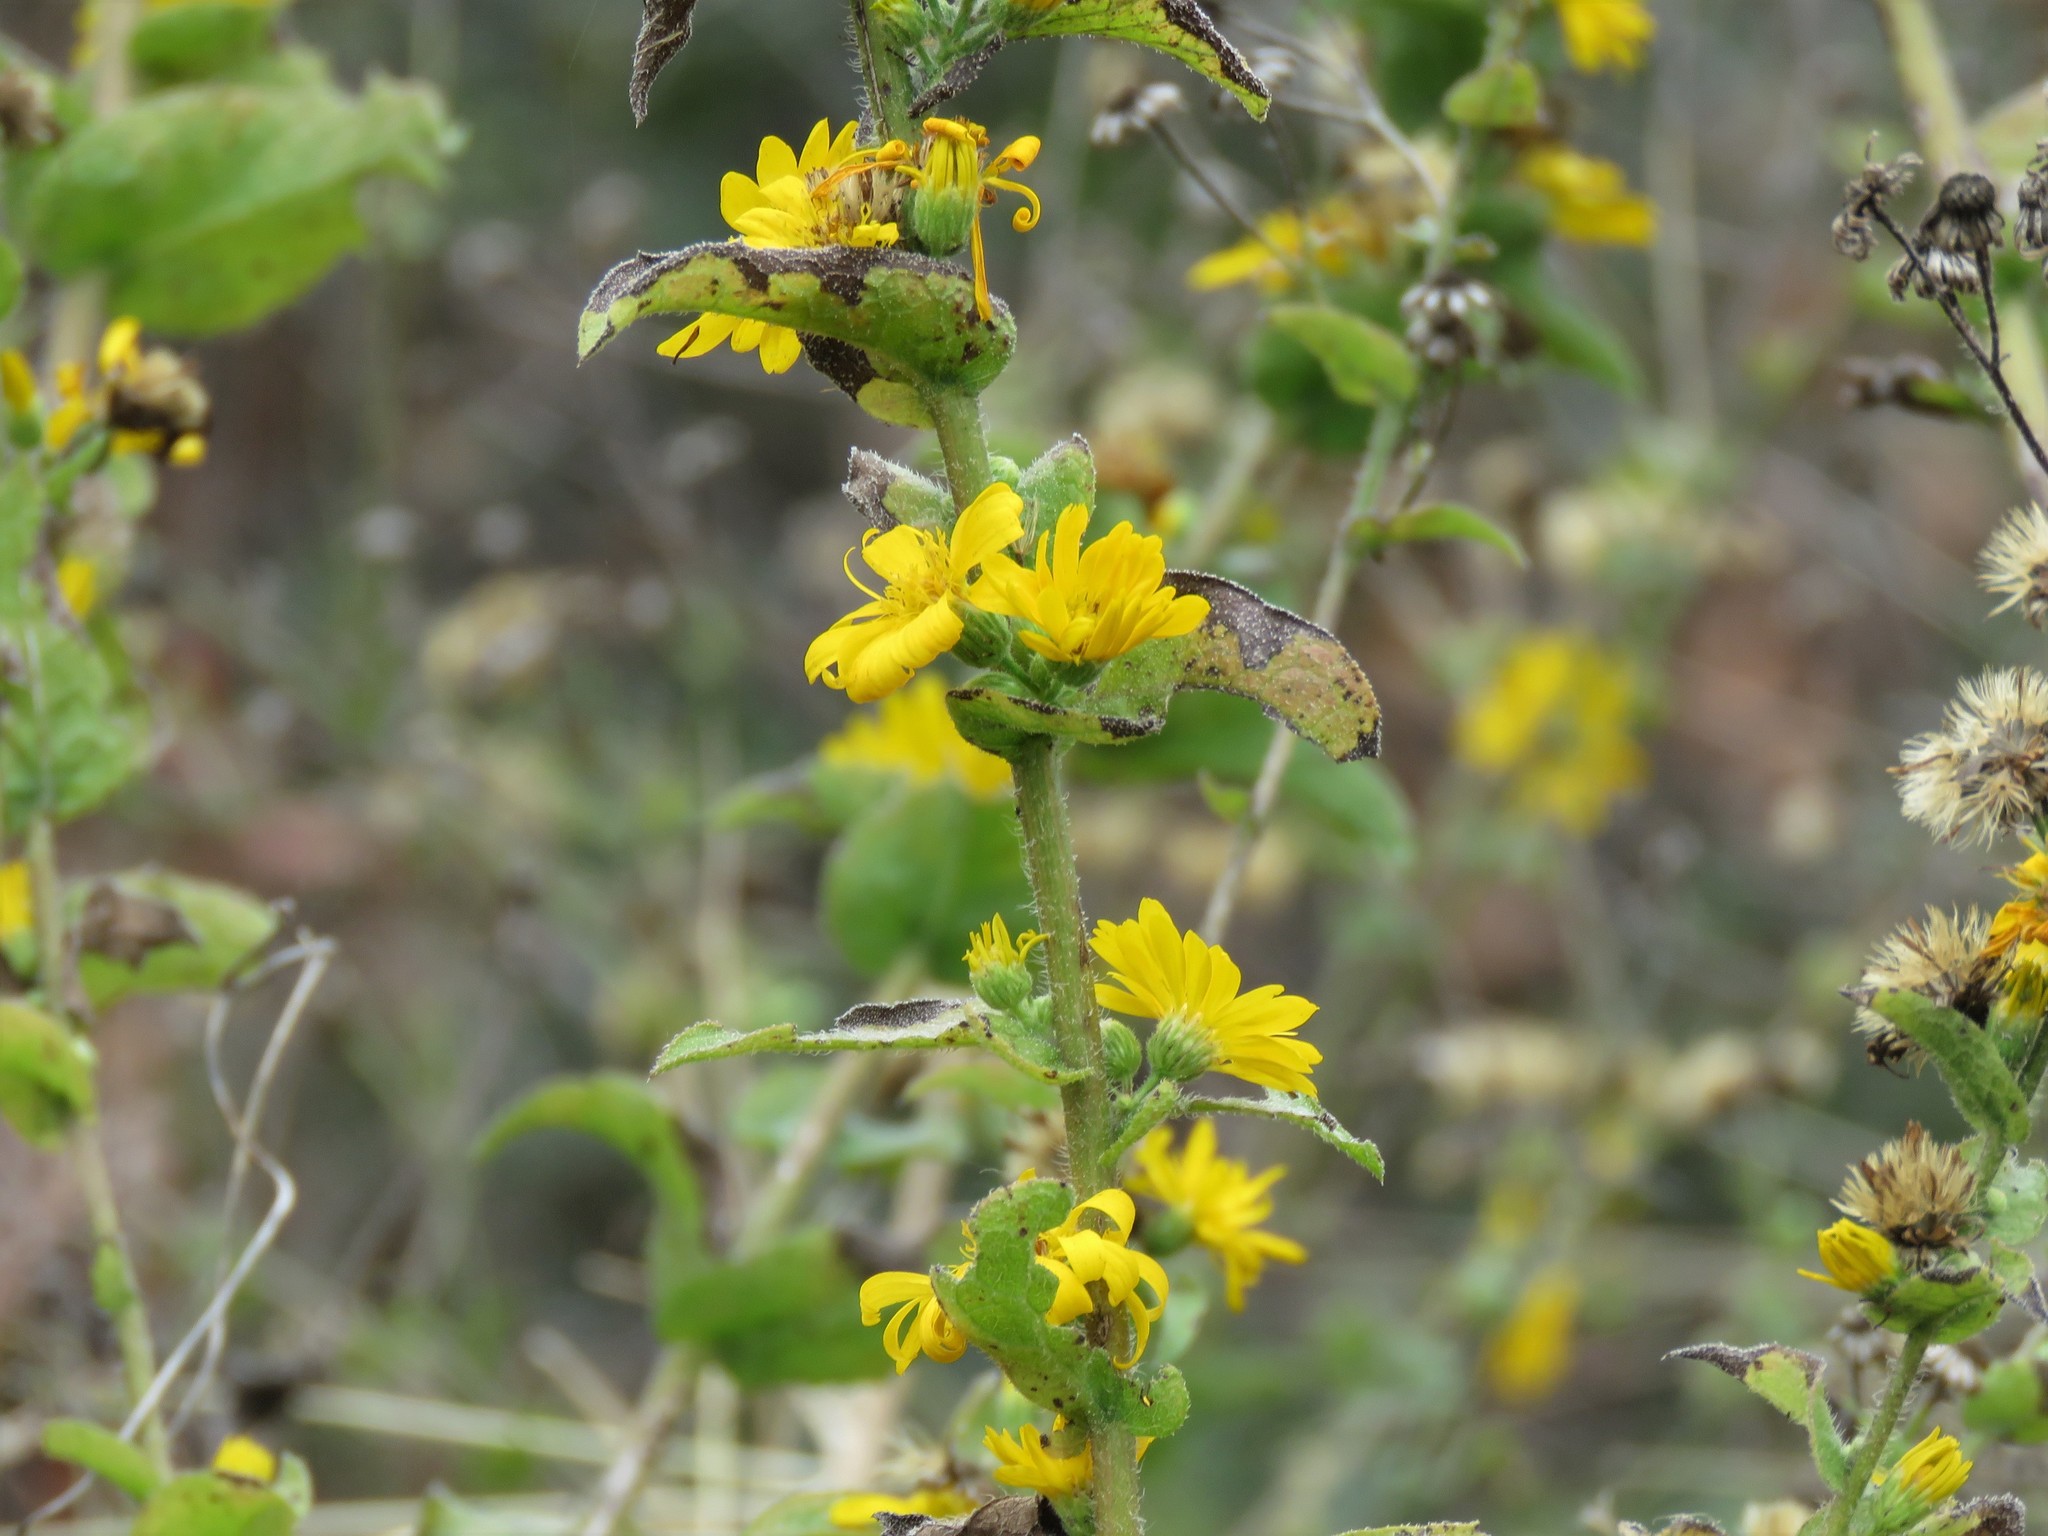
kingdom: Plantae
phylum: Tracheophyta
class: Magnoliopsida
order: Asterales
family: Asteraceae
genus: Heterotheca
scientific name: Heterotheca subaxillaris
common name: Camphorweed
